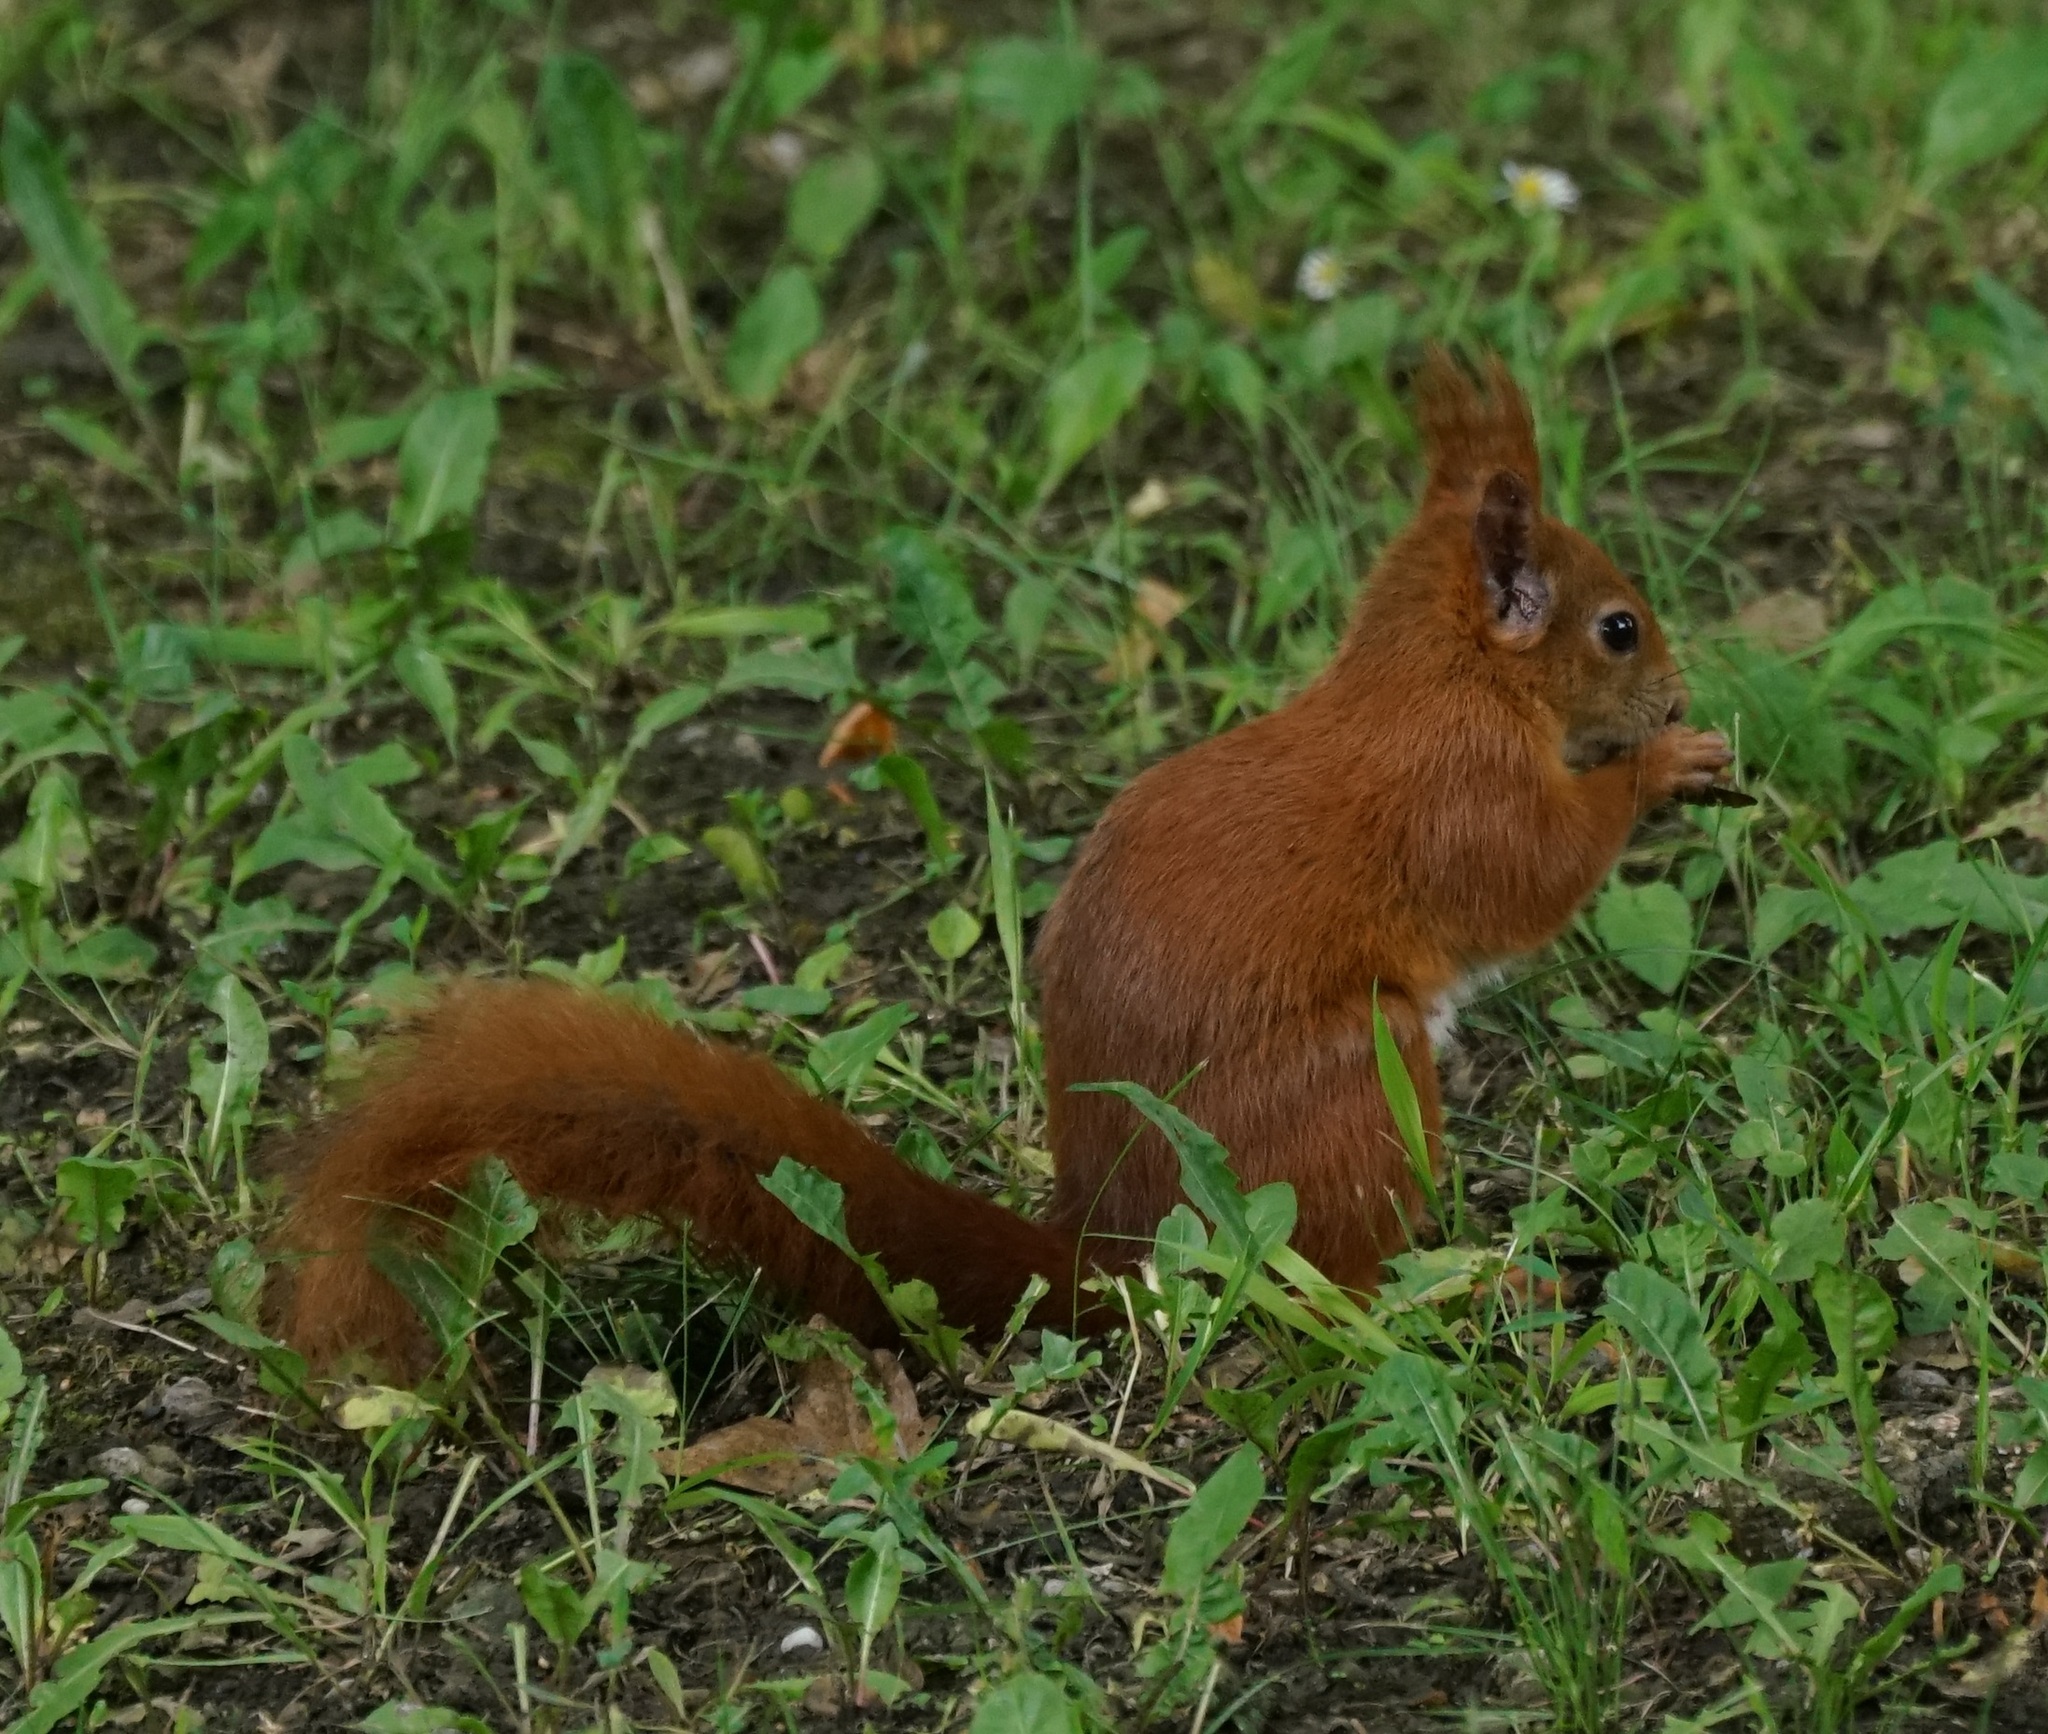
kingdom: Animalia
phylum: Chordata
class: Mammalia
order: Rodentia
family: Sciuridae
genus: Sciurus
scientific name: Sciurus vulgaris
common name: Eurasian red squirrel
